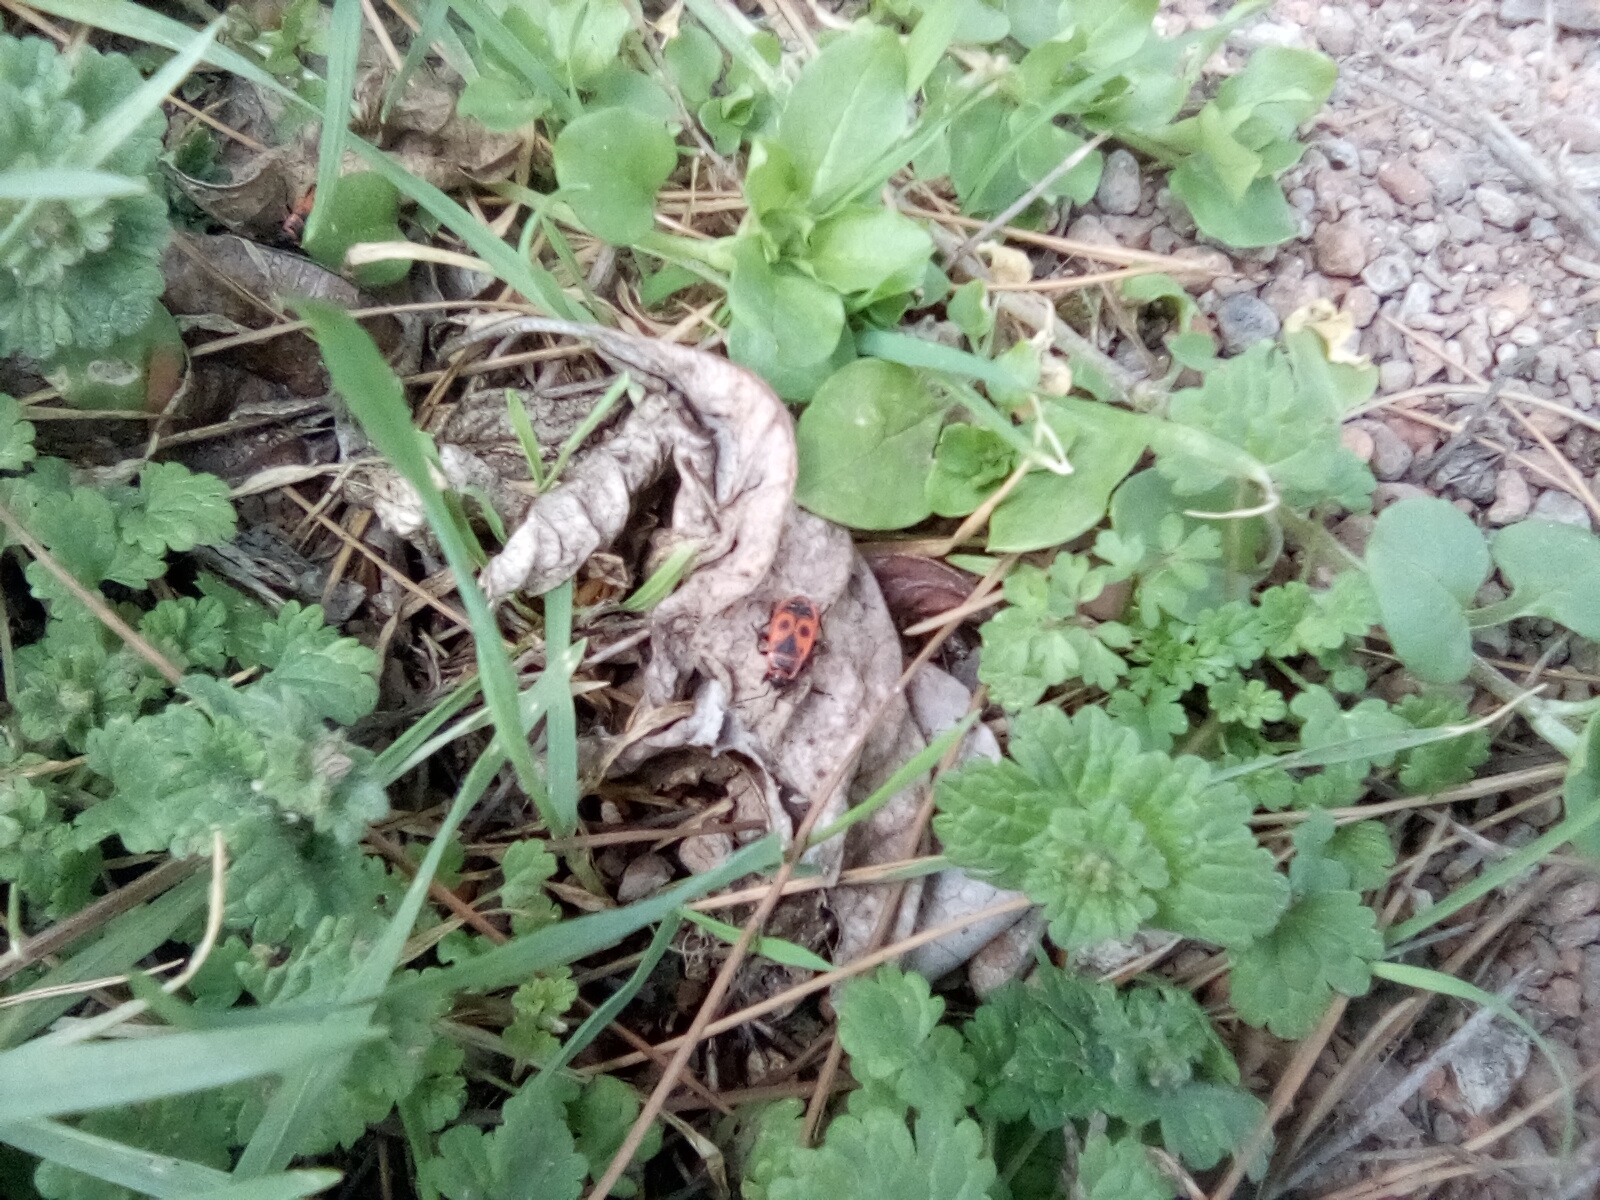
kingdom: Animalia
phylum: Arthropoda
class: Insecta
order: Hemiptera
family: Pyrrhocoridae
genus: Pyrrhocoris
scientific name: Pyrrhocoris apterus
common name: Firebug
